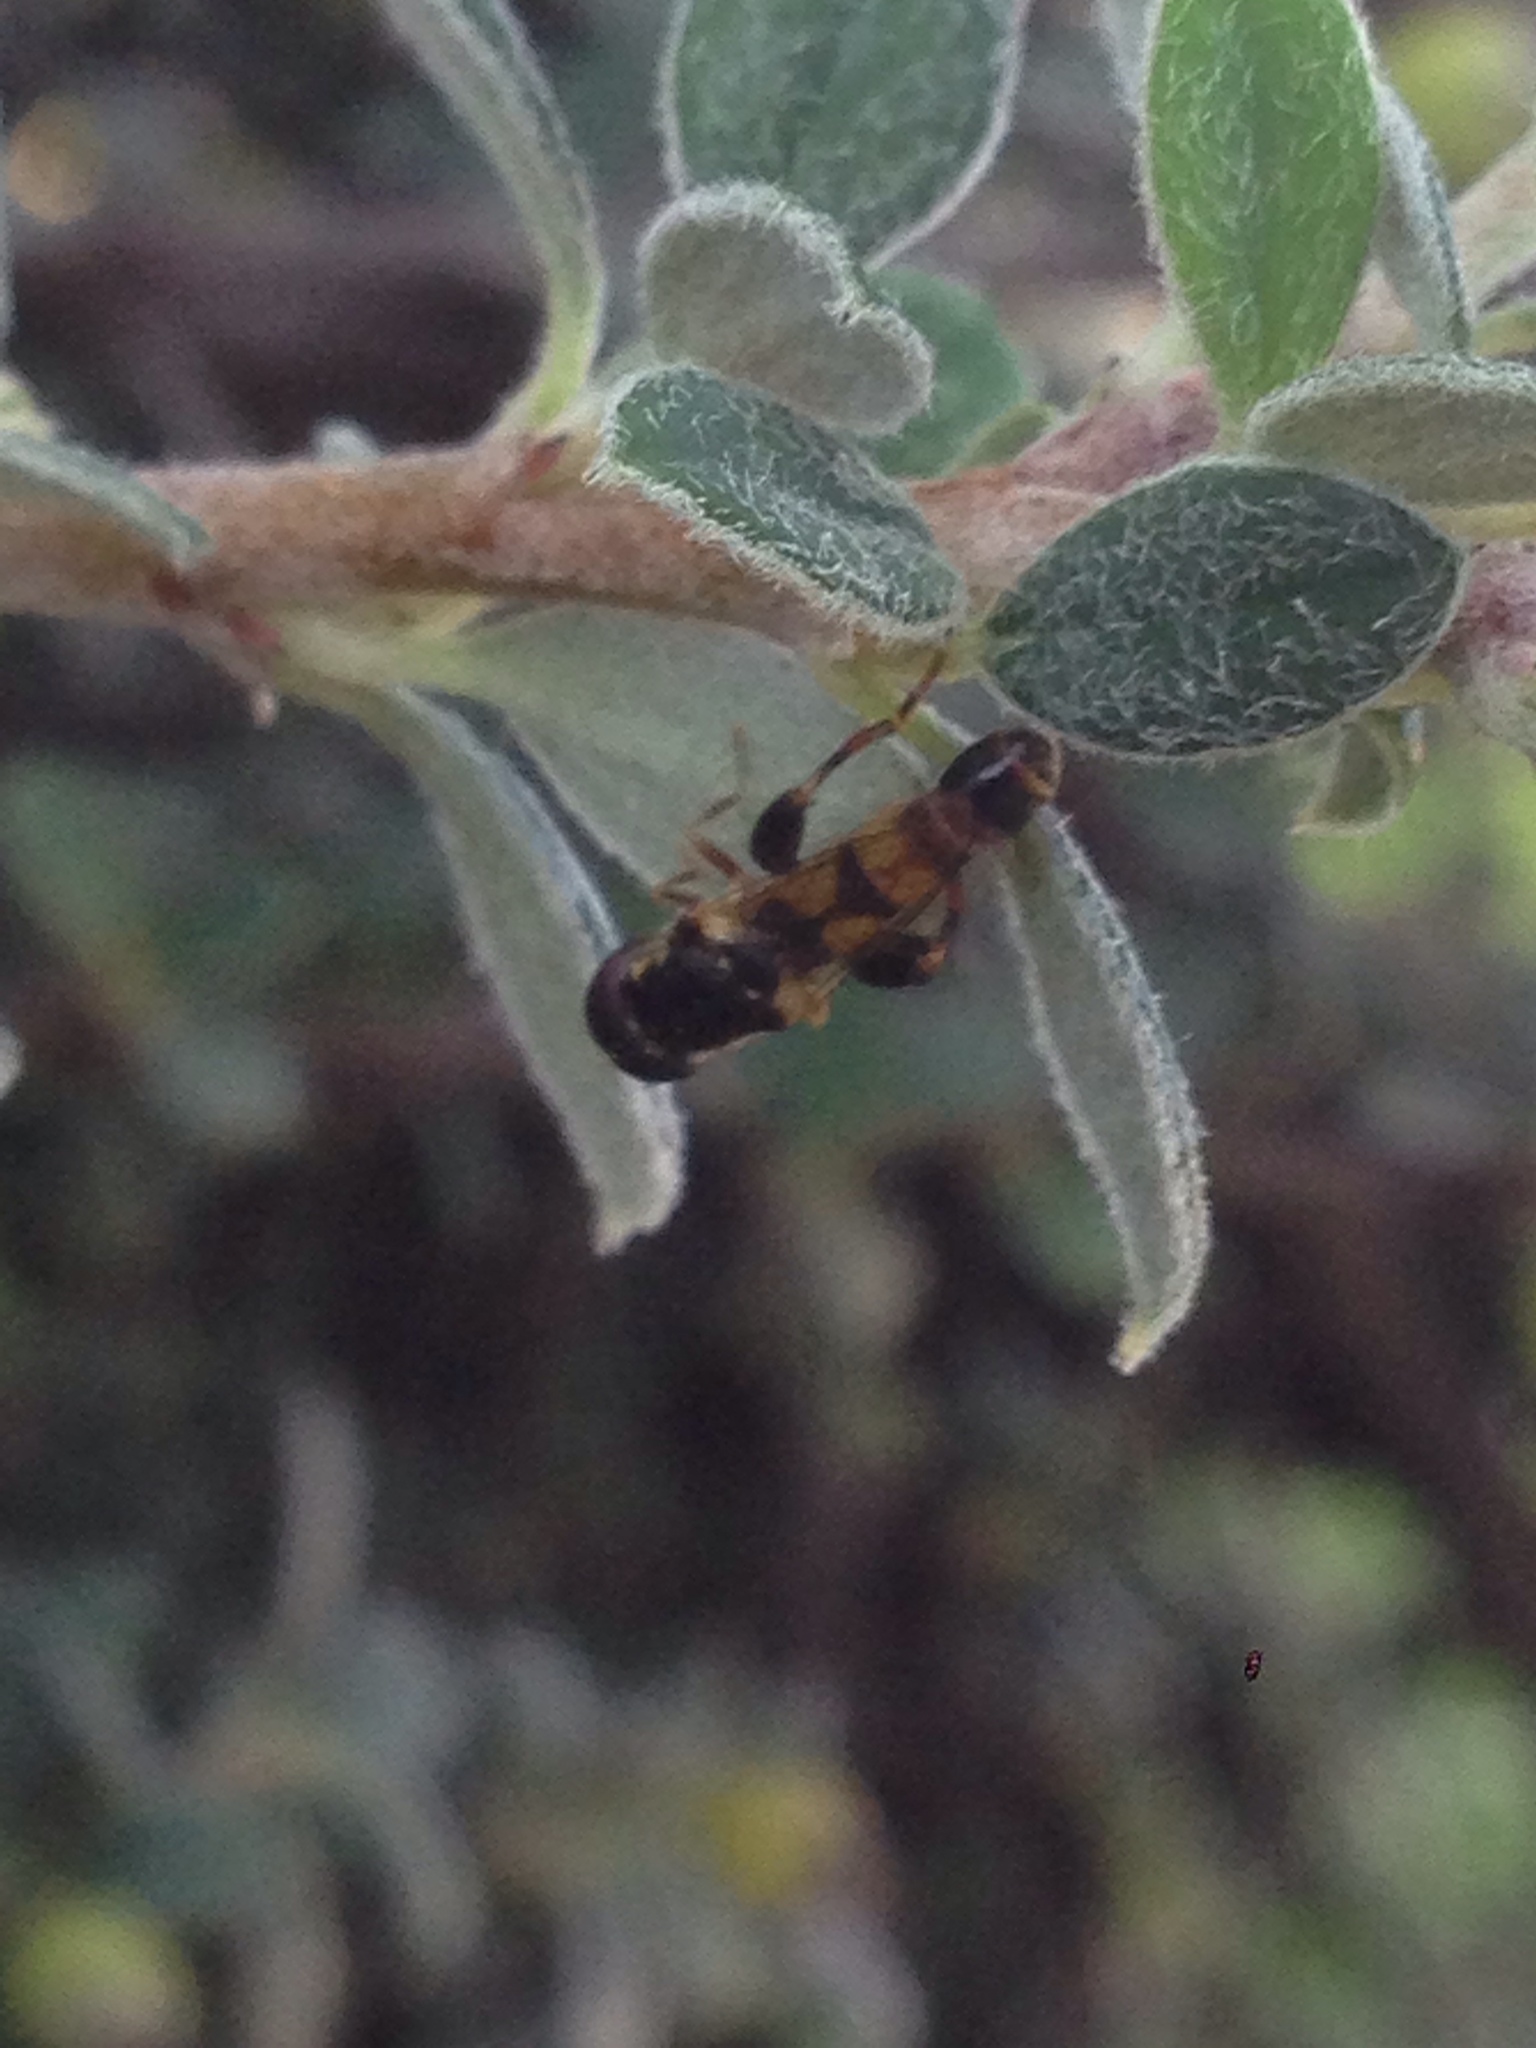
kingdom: Animalia
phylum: Arthropoda
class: Insecta
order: Diptera
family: Syrphidae
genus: Syritta
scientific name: Syritta pipiens
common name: Hover fly
